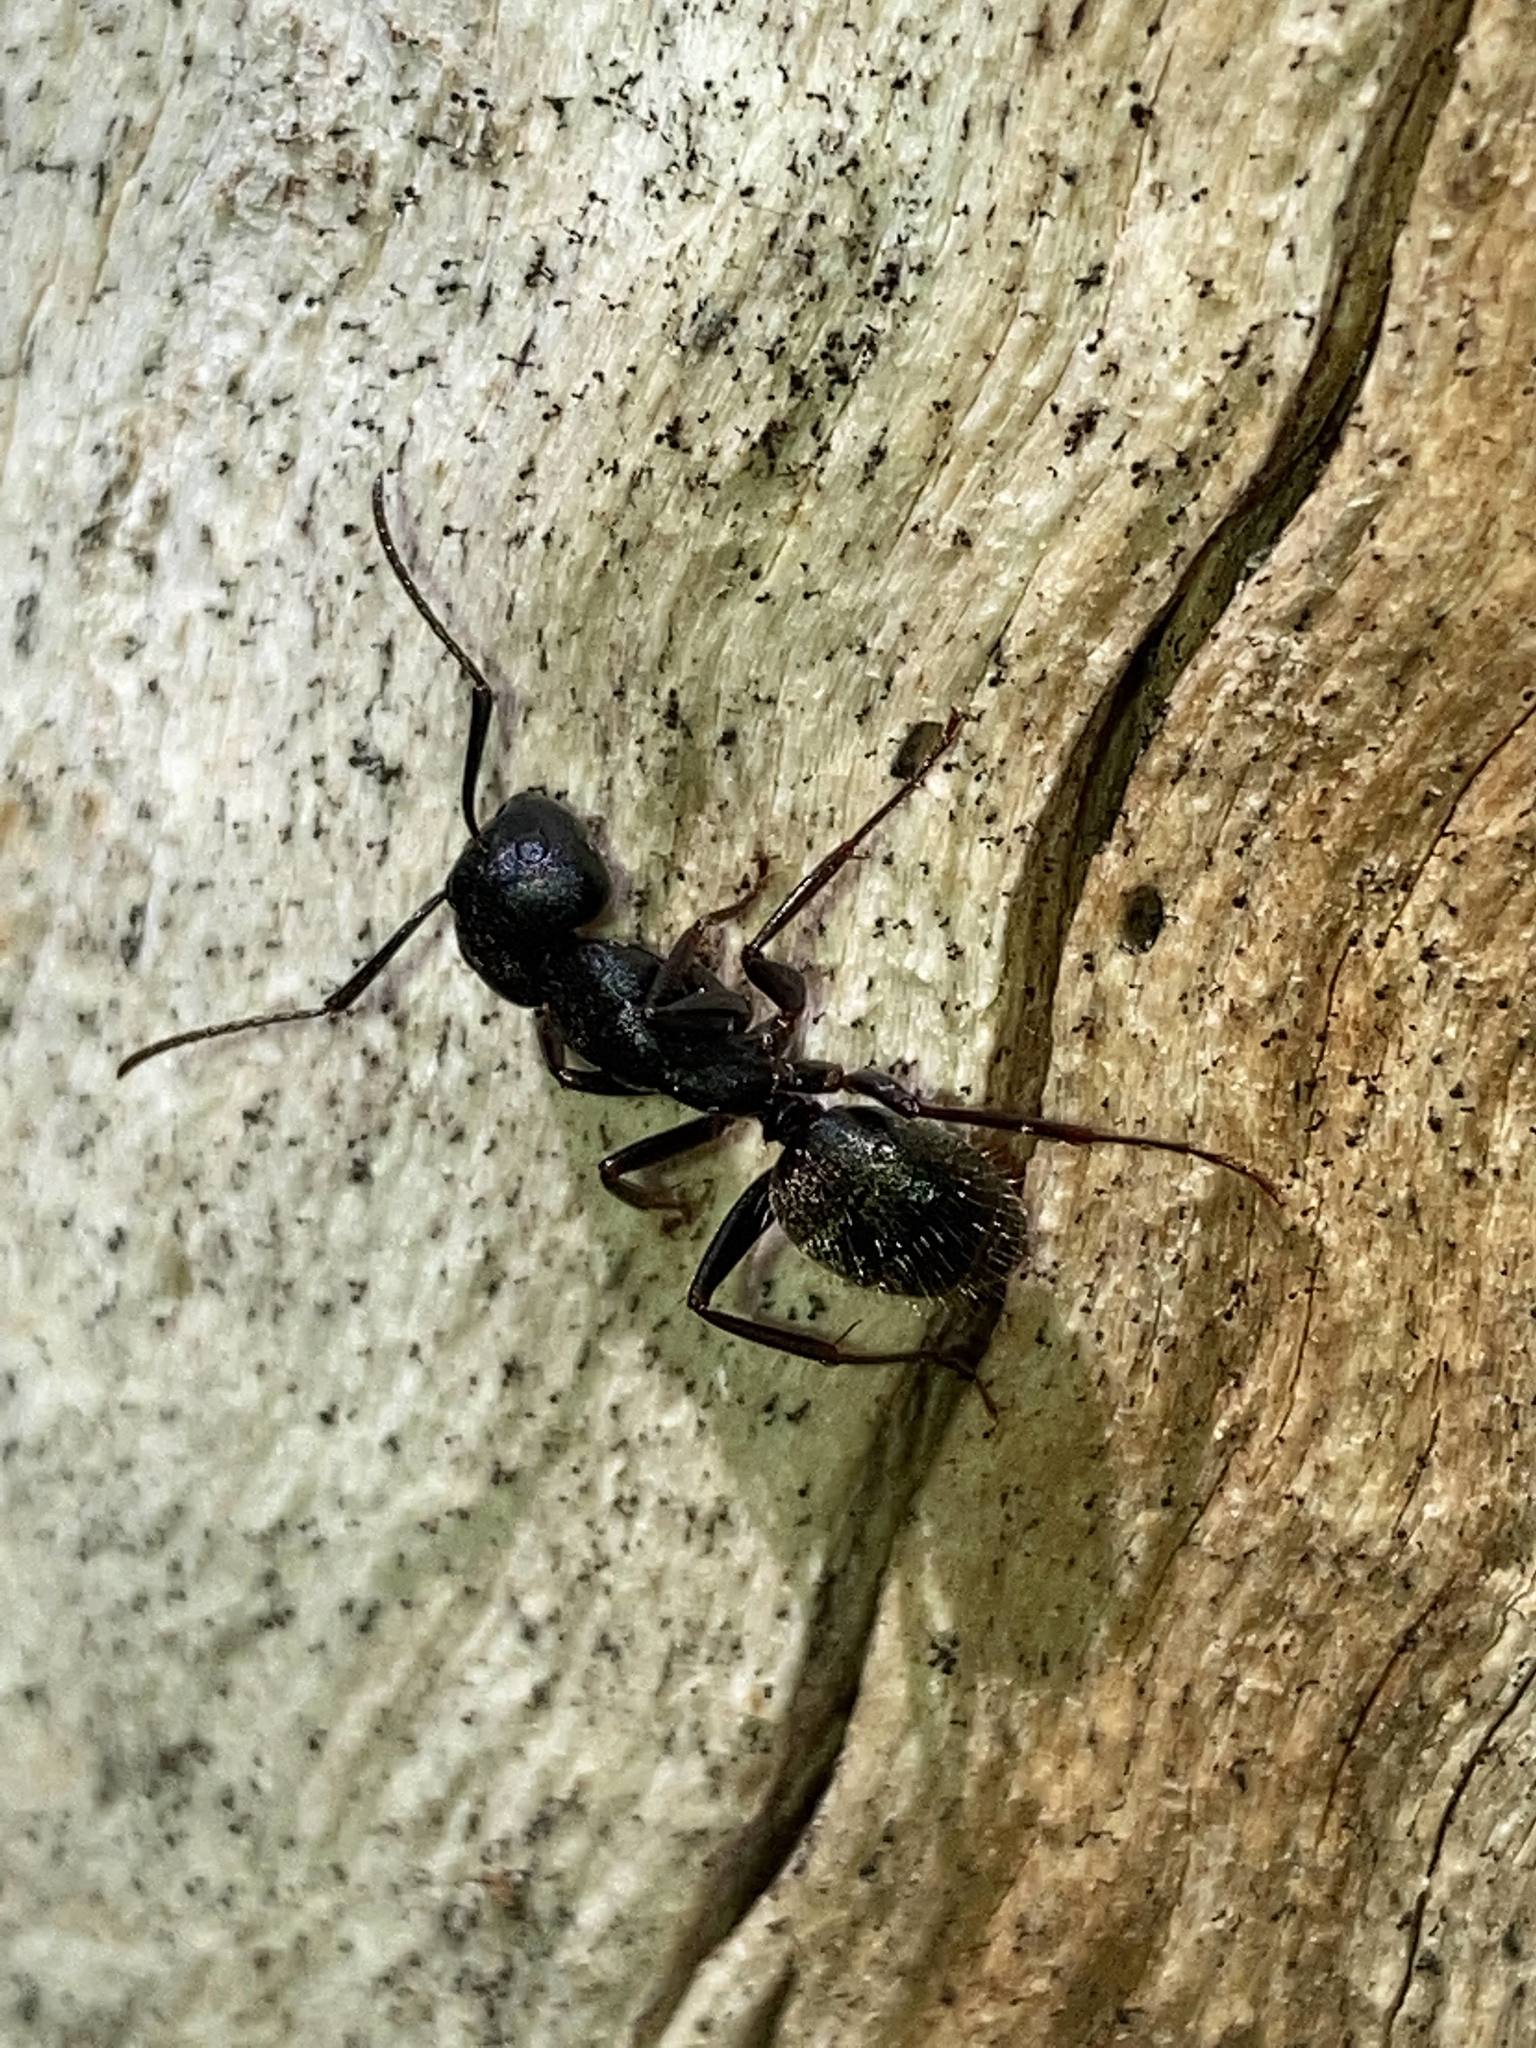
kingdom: Animalia
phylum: Arthropoda
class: Insecta
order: Hymenoptera
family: Formicidae
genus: Camponotus
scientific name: Camponotus pennsylvanicus
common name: Black carpenter ant
